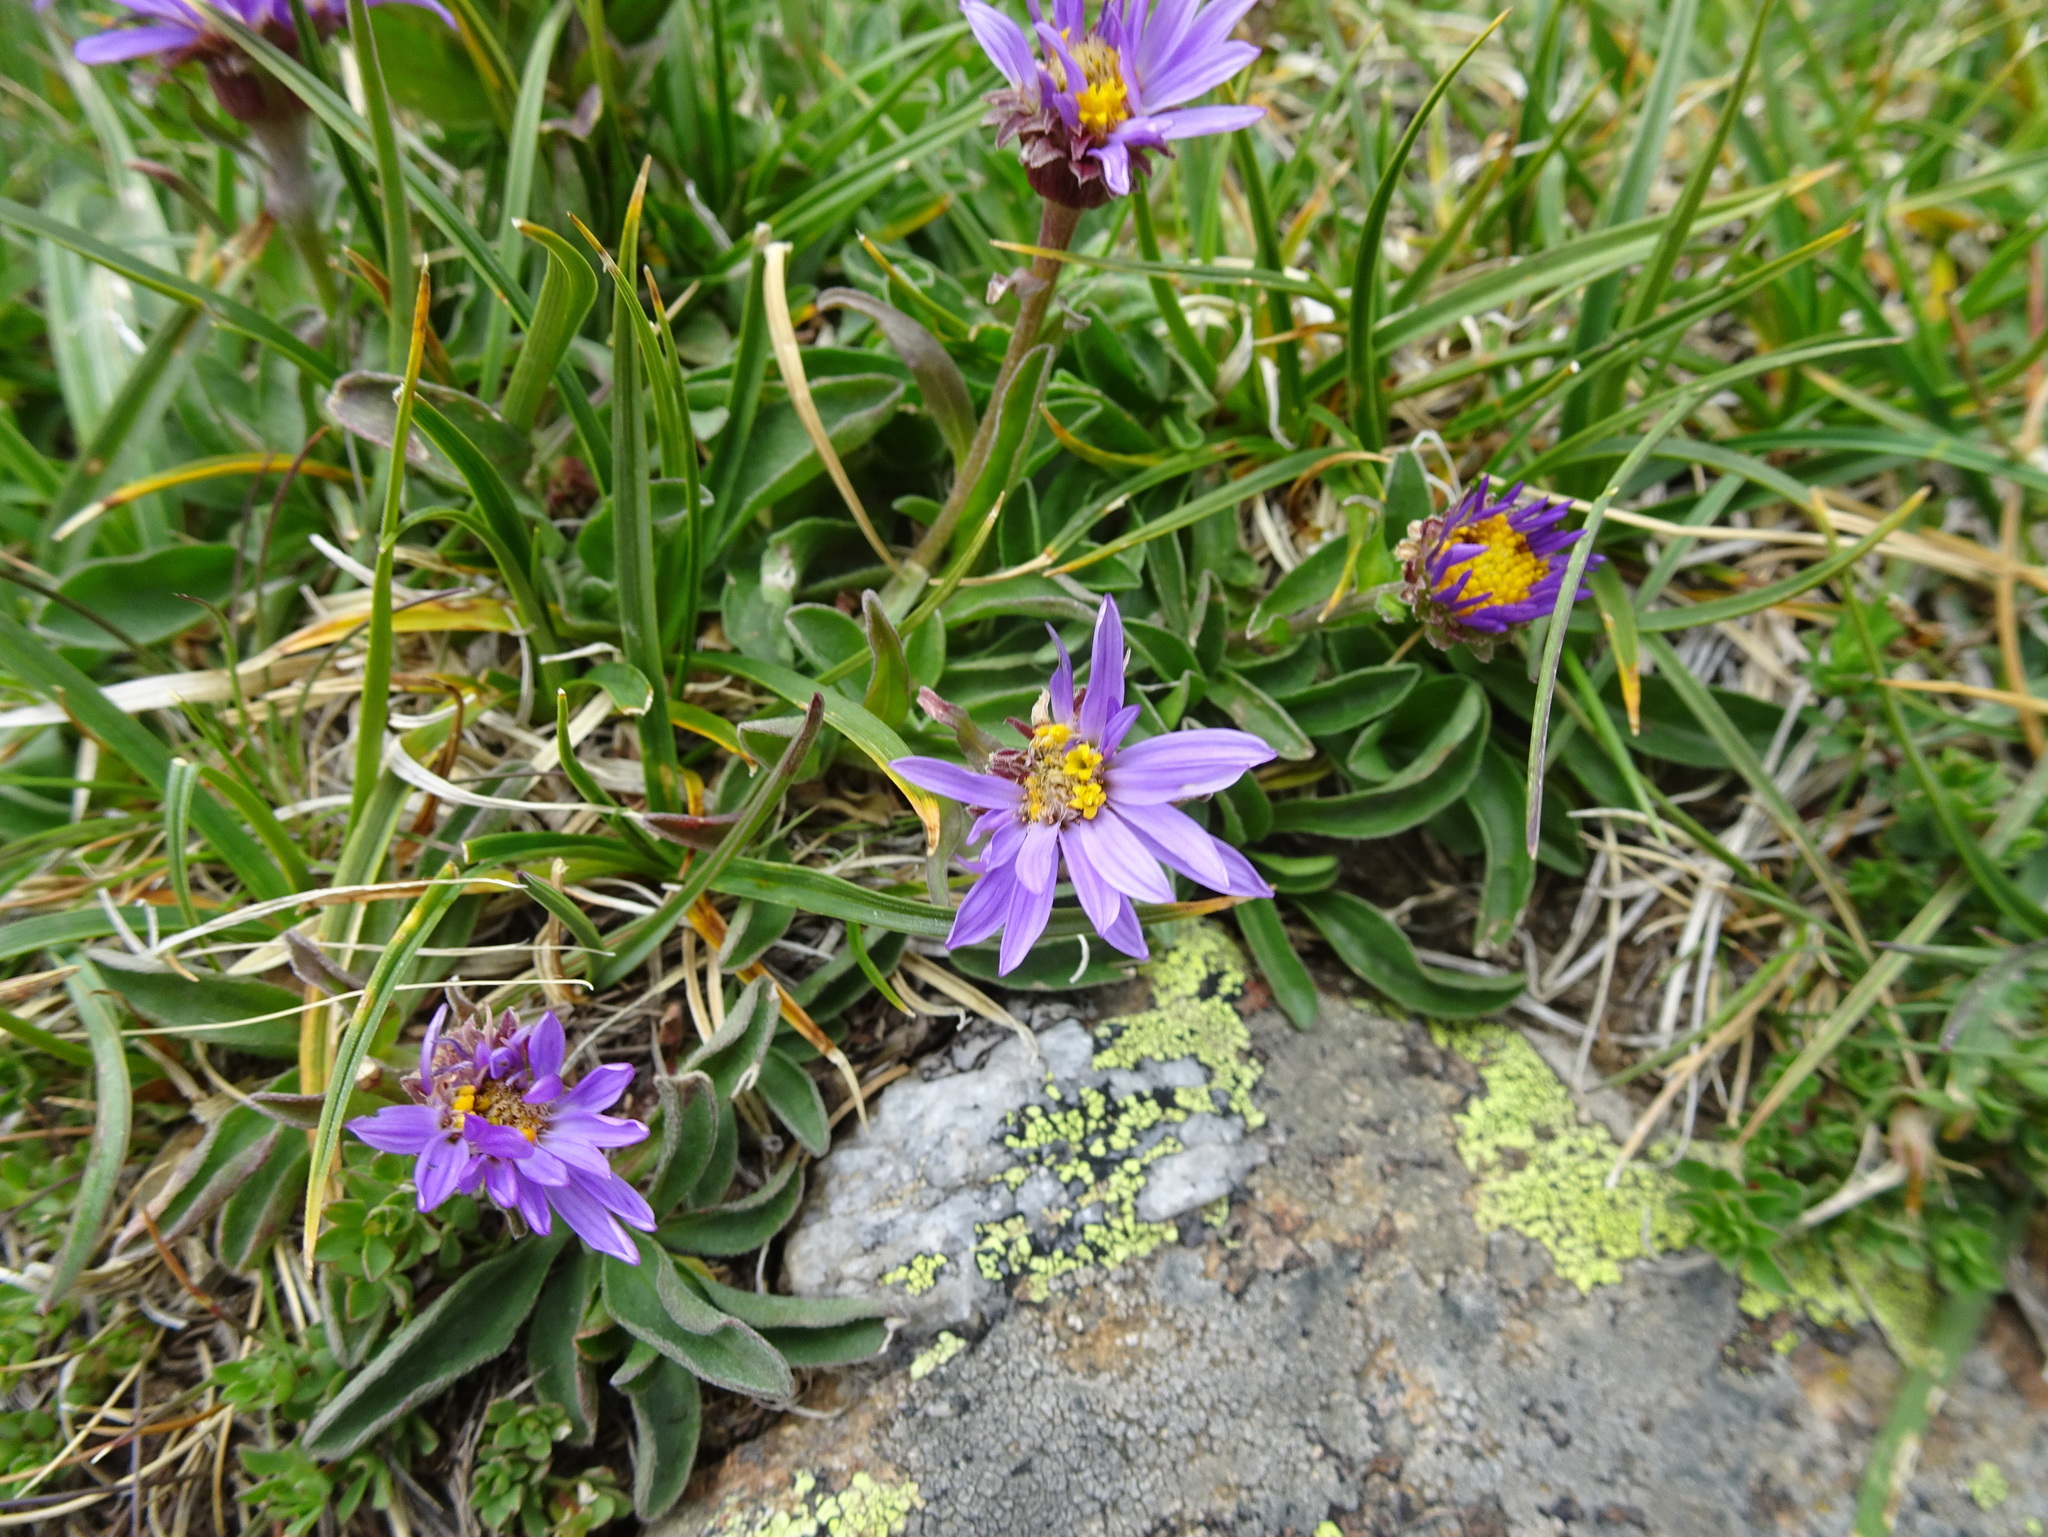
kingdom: Plantae
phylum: Tracheophyta
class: Magnoliopsida
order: Asterales
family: Asteraceae
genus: Aster
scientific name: Aster alpinus
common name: Alpine aster
